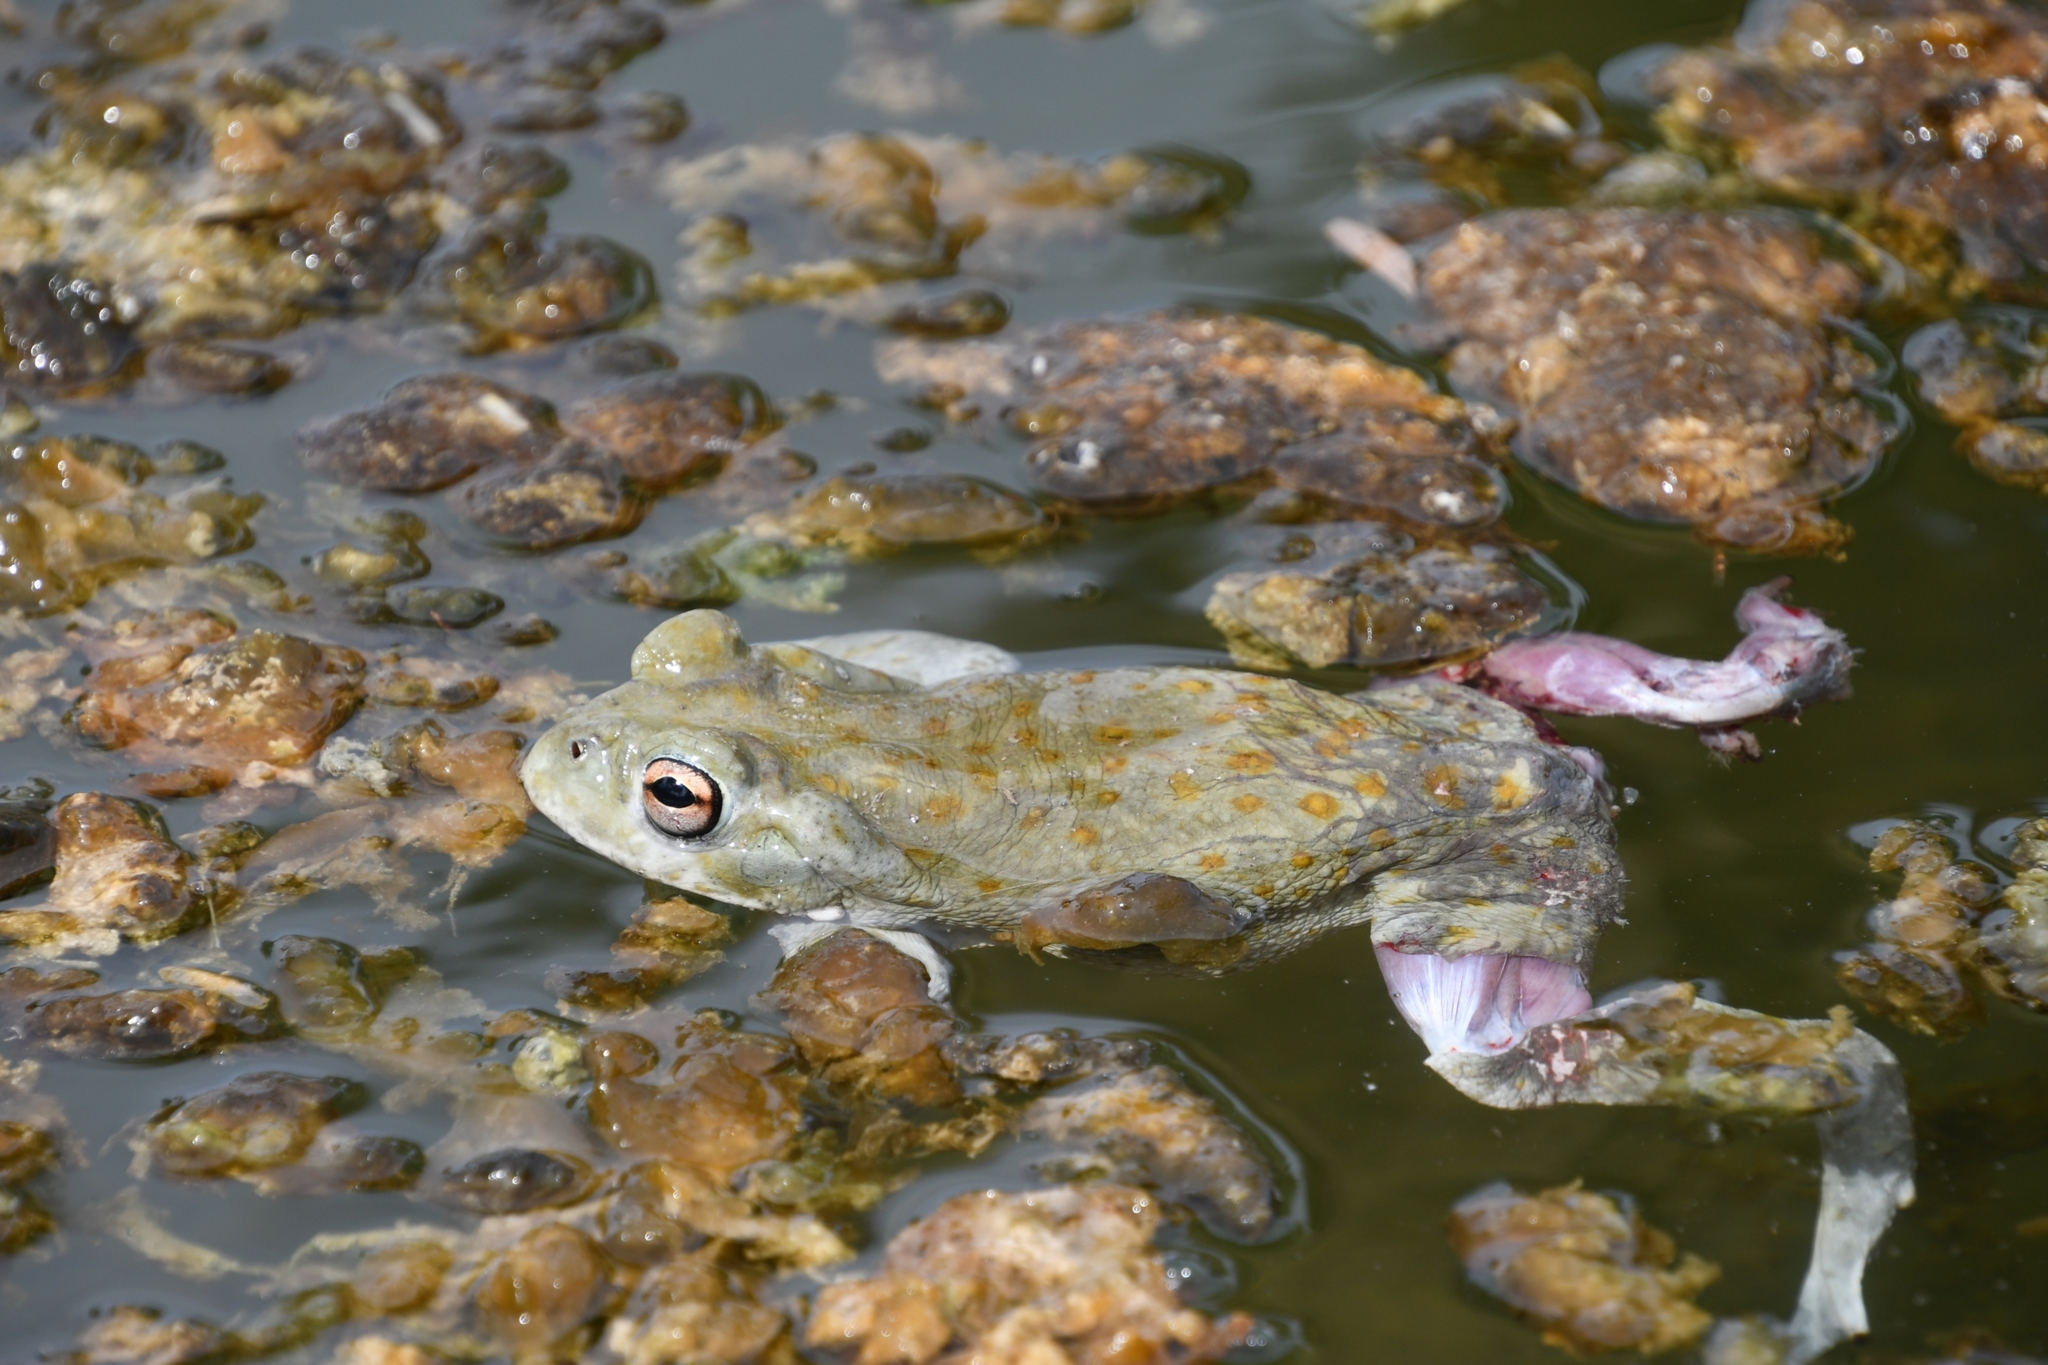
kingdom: Animalia
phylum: Chordata
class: Amphibia
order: Anura
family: Bufonidae
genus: Incilius
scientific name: Incilius alvarius
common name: Sonoran desert toad
